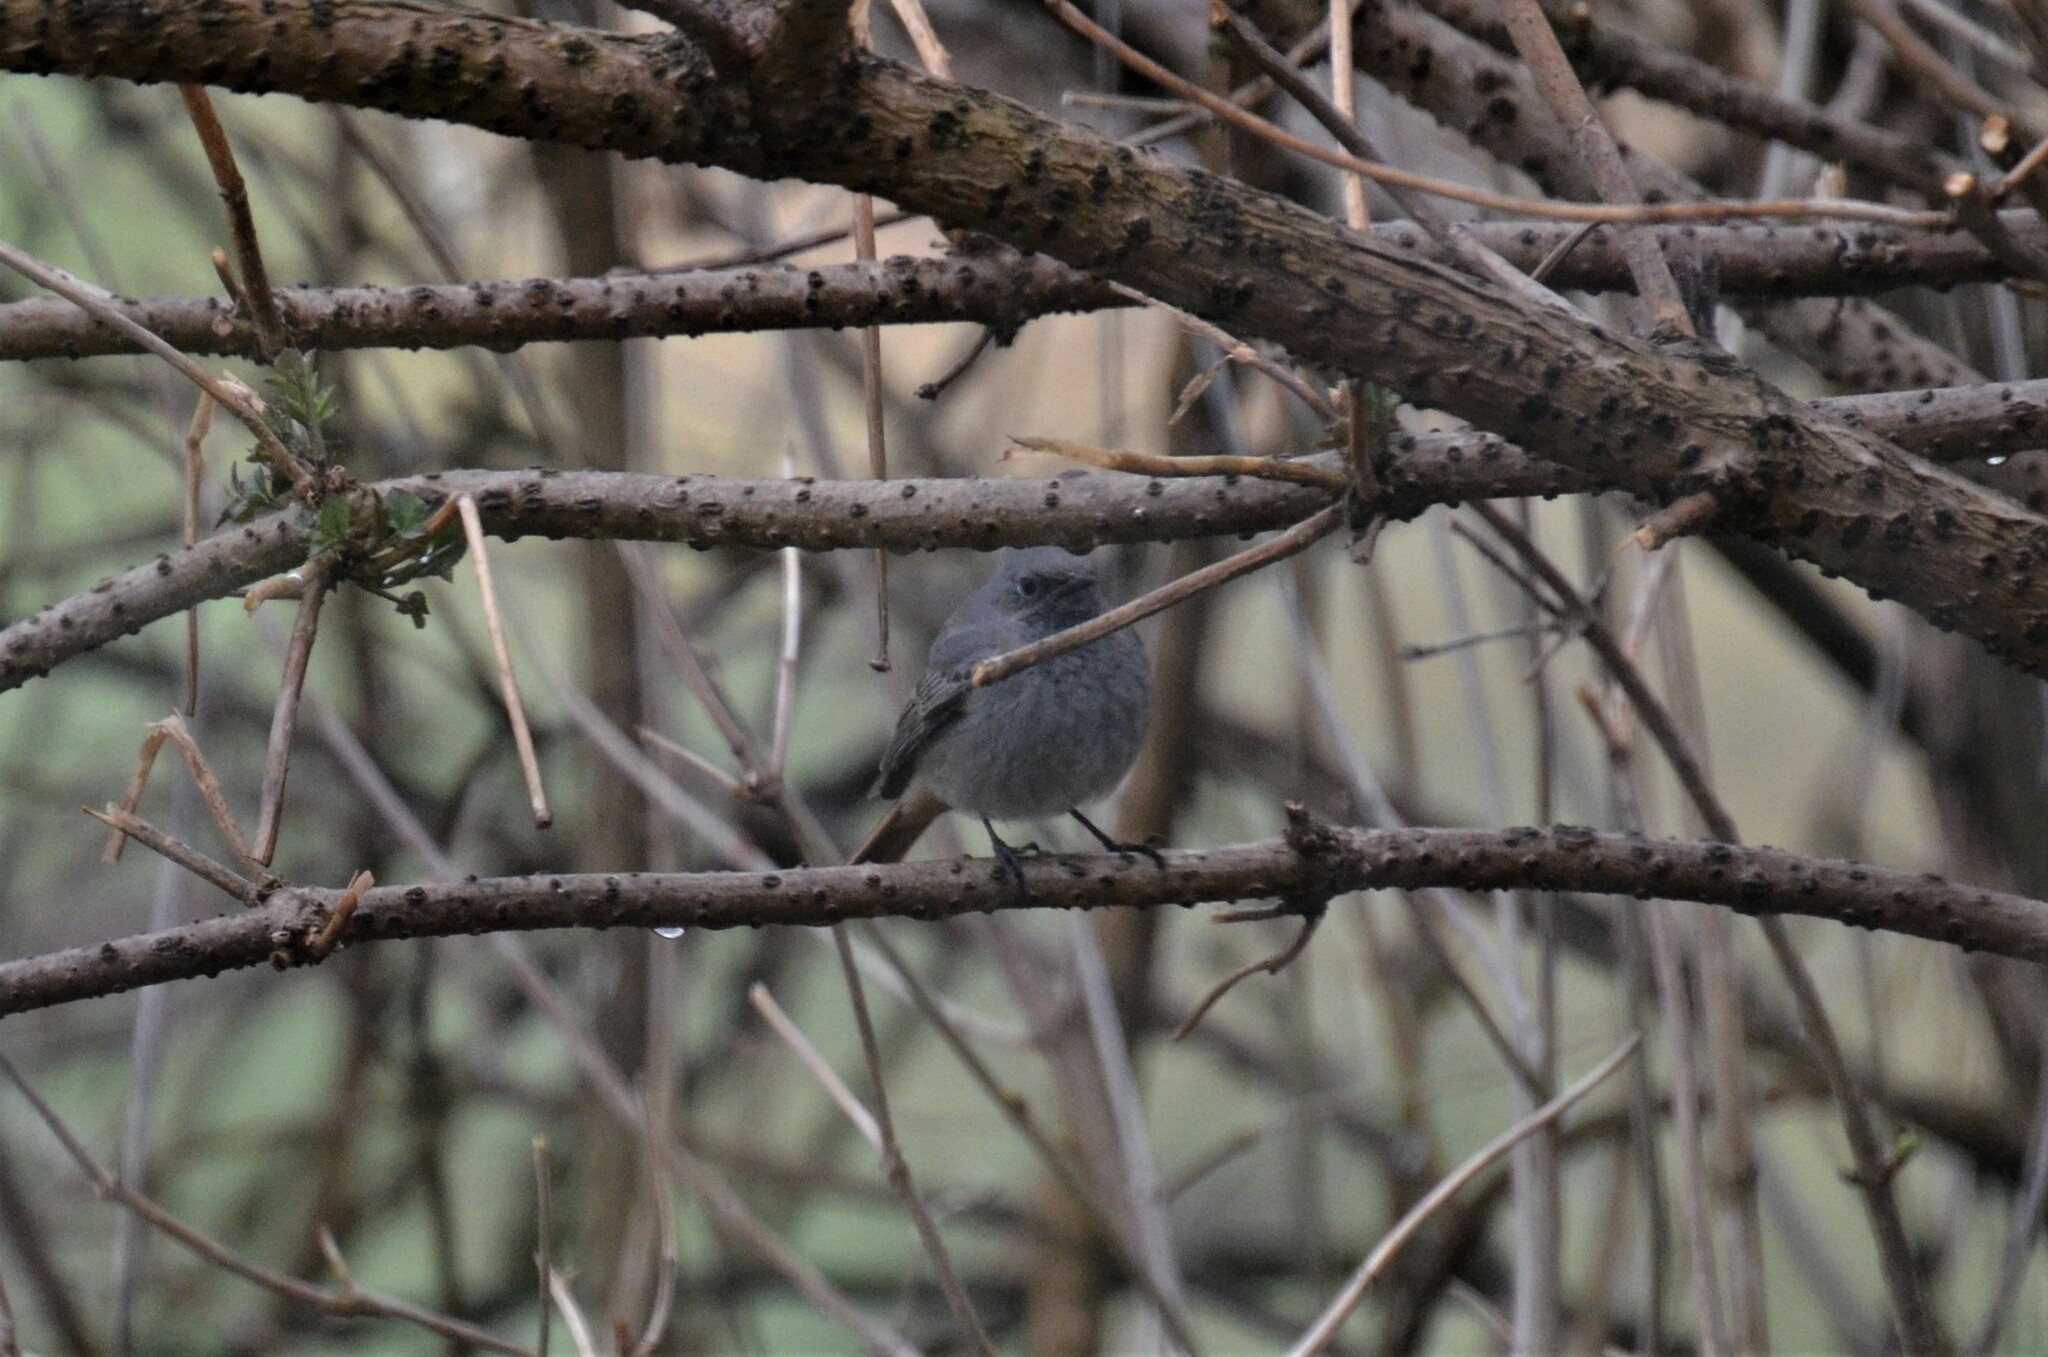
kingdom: Animalia
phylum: Chordata
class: Aves
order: Passeriformes
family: Muscicapidae
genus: Phoenicurus
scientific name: Phoenicurus ochruros
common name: Black redstart
